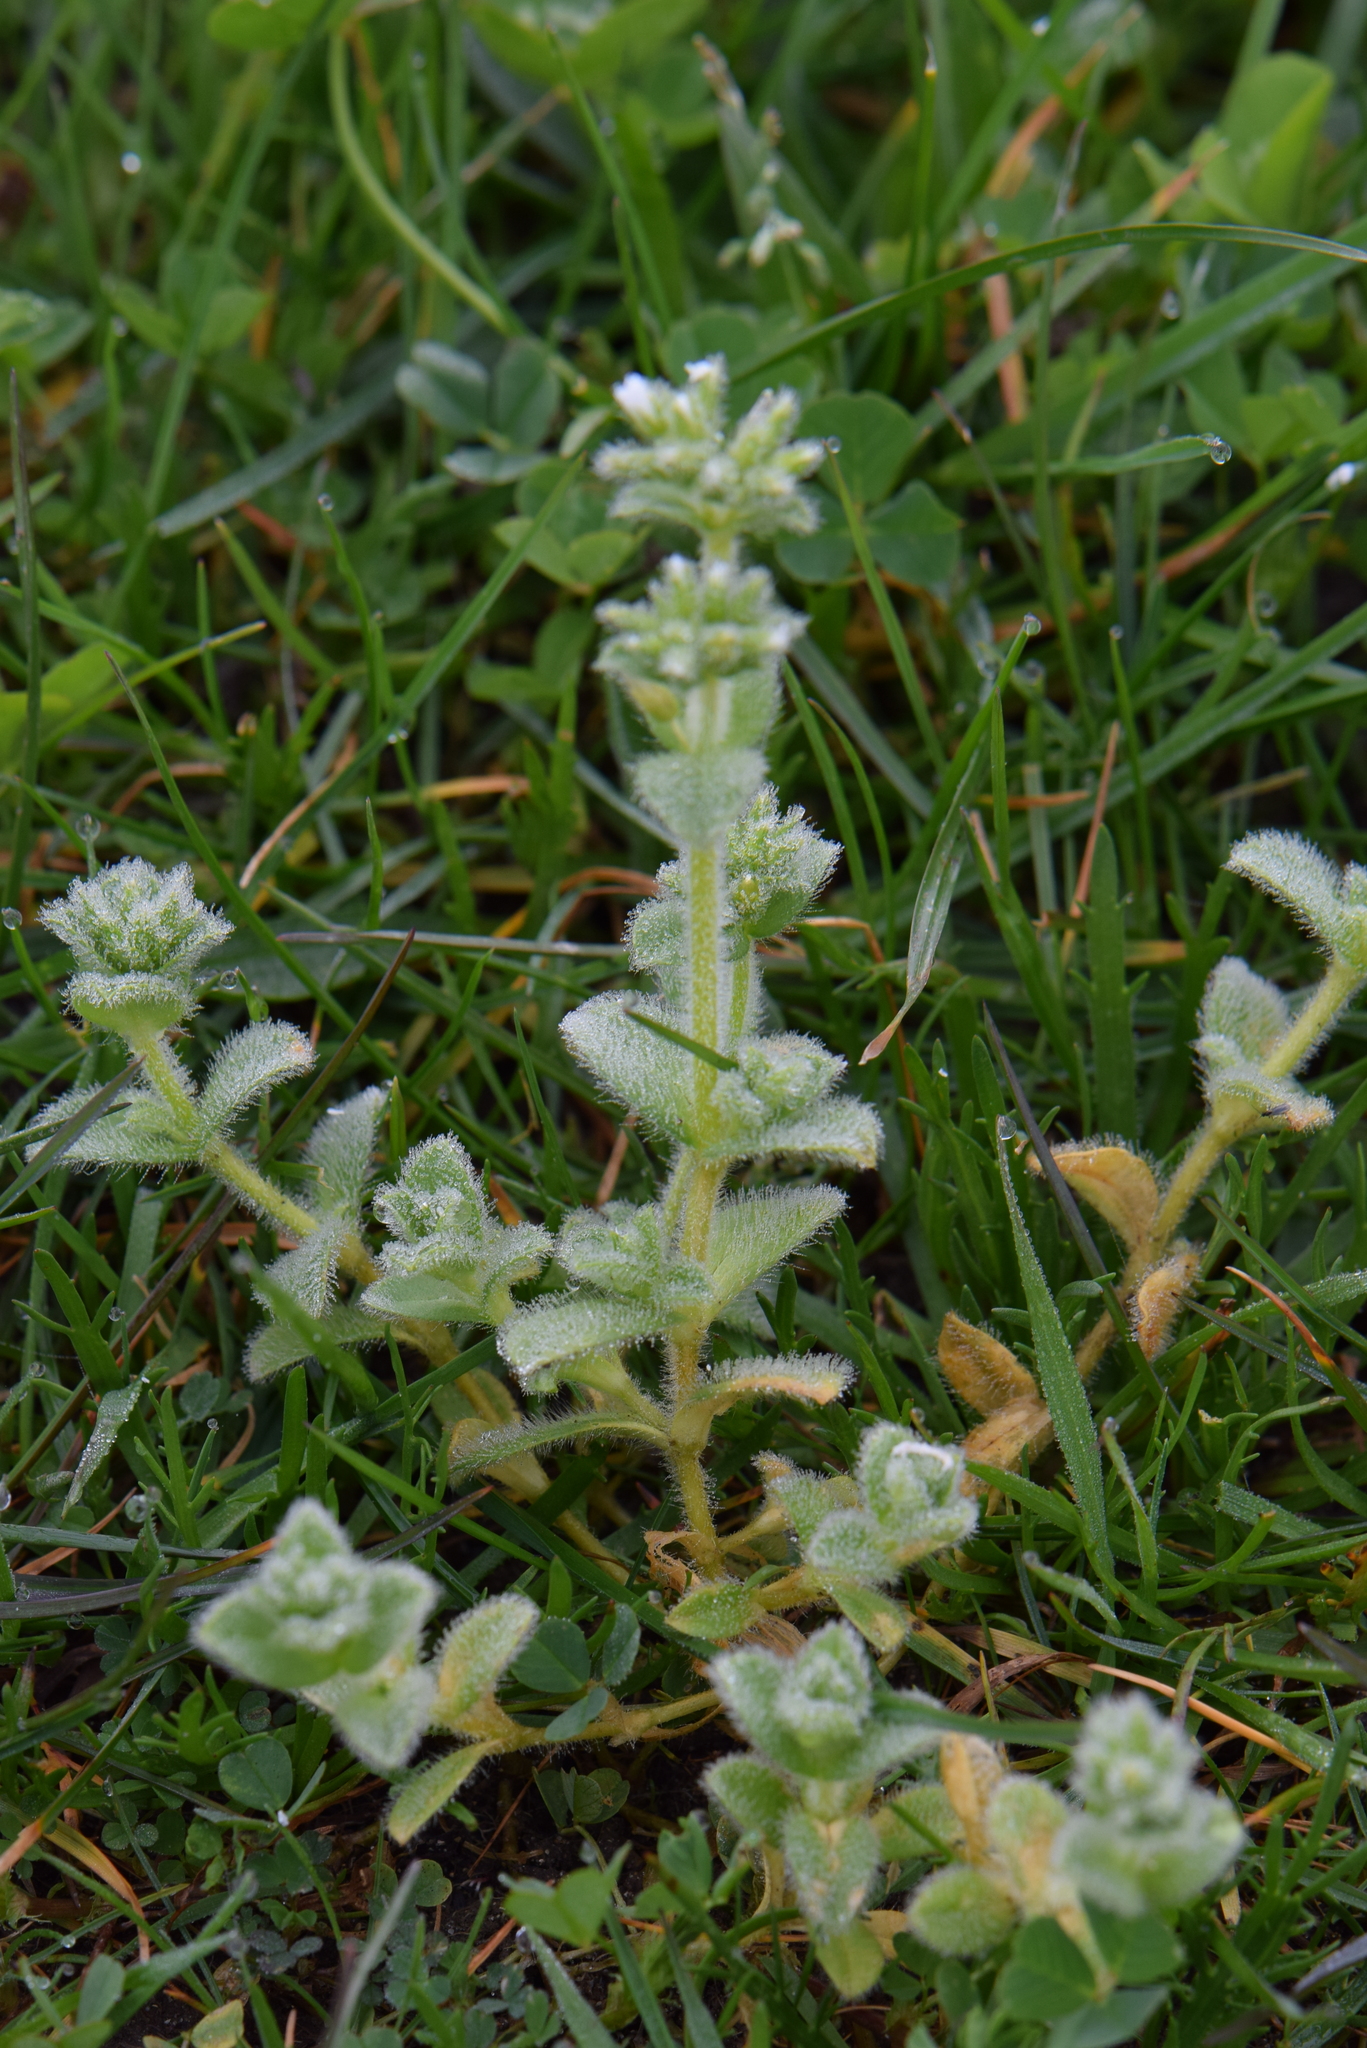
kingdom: Plantae
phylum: Tracheophyta
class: Magnoliopsida
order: Caryophyllales
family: Caryophyllaceae
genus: Cerastium
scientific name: Cerastium glomeratum
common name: Sticky chickweed
